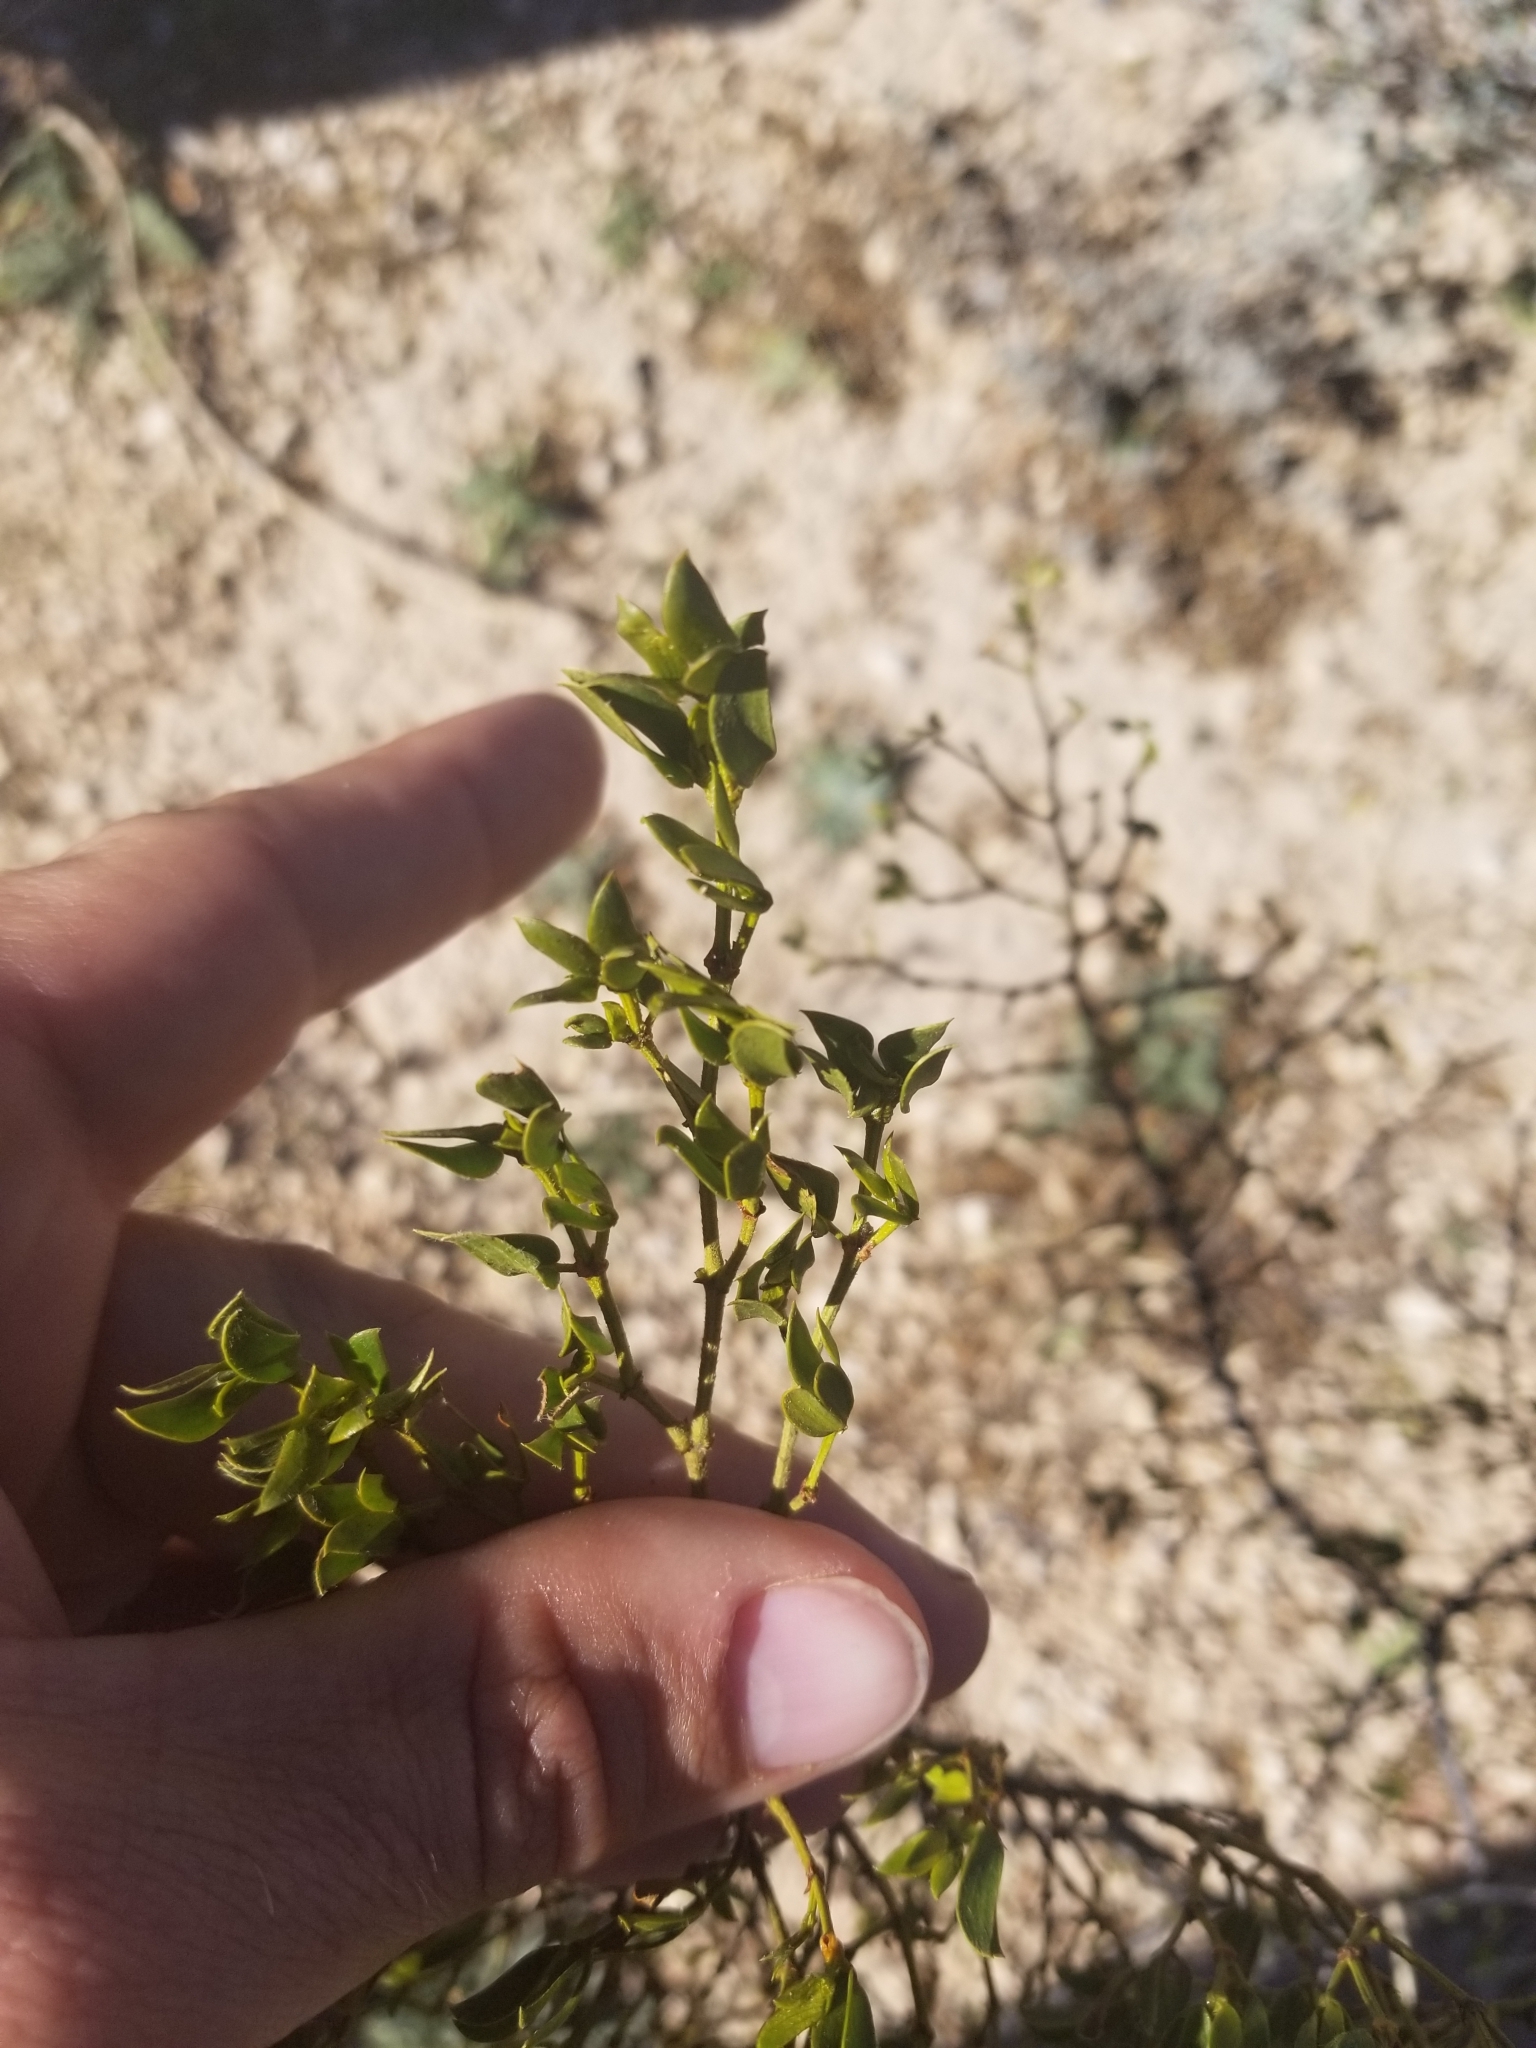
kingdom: Plantae
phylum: Tracheophyta
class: Magnoliopsida
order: Zygophyllales
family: Zygophyllaceae
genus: Larrea
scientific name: Larrea tridentata
